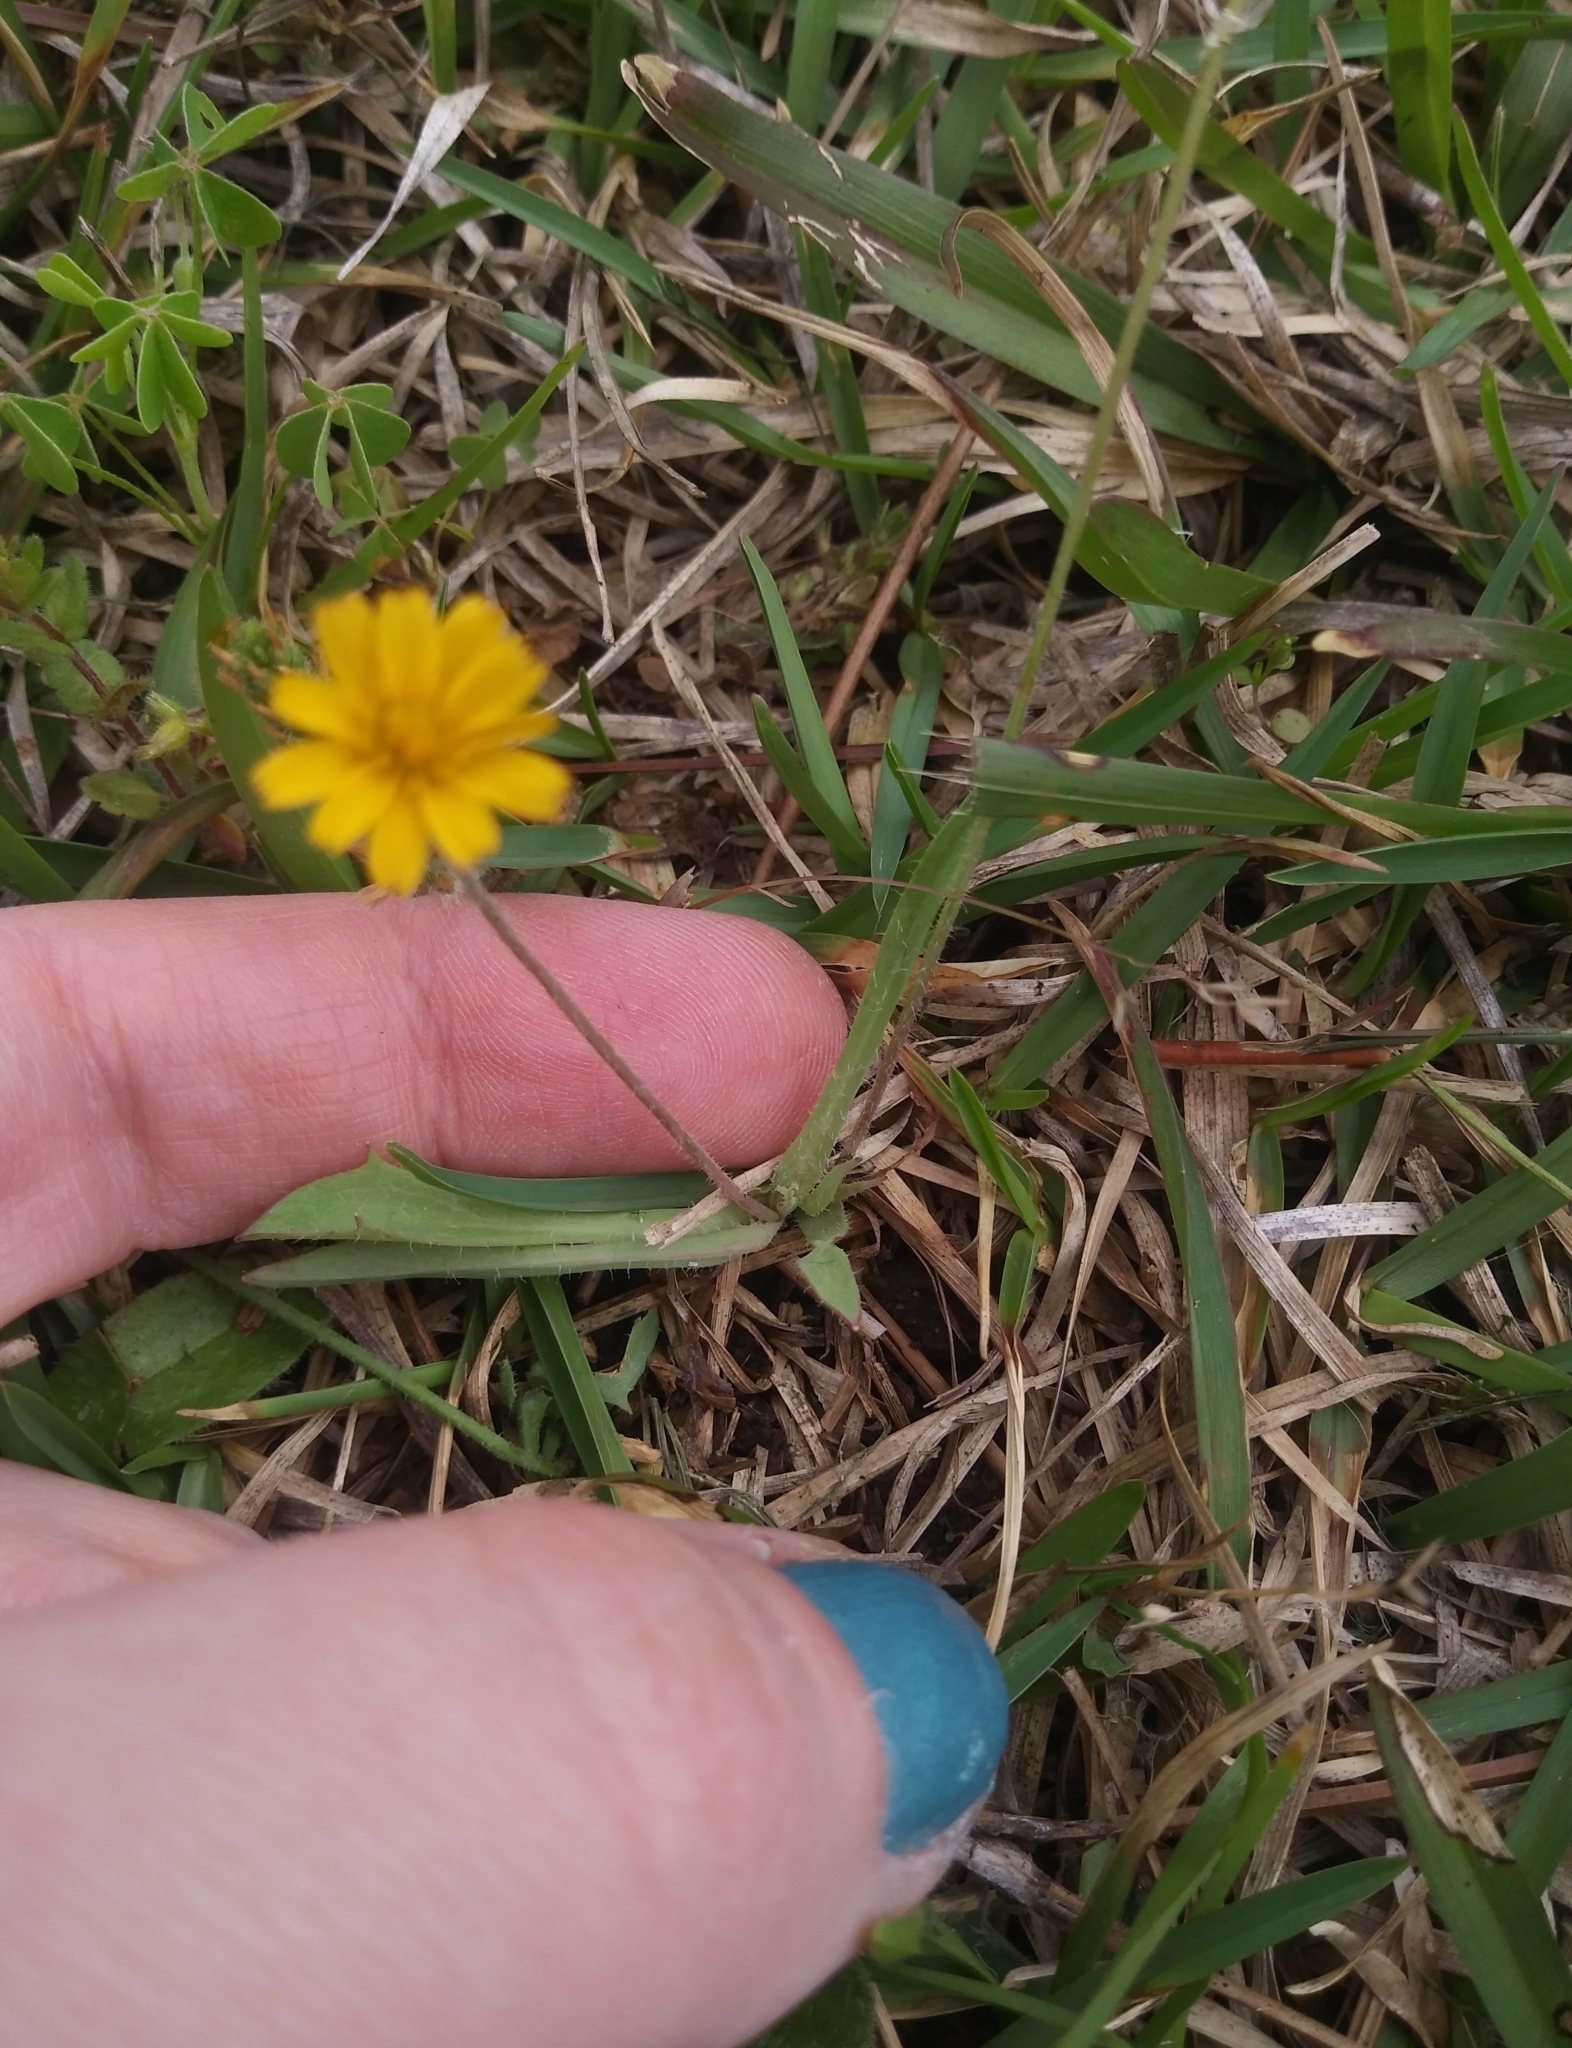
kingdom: Plantae
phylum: Tracheophyta
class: Magnoliopsida
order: Asterales
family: Asteraceae
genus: Krigia
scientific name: Krigia virginica
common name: Virginia dwarf-dandelion
